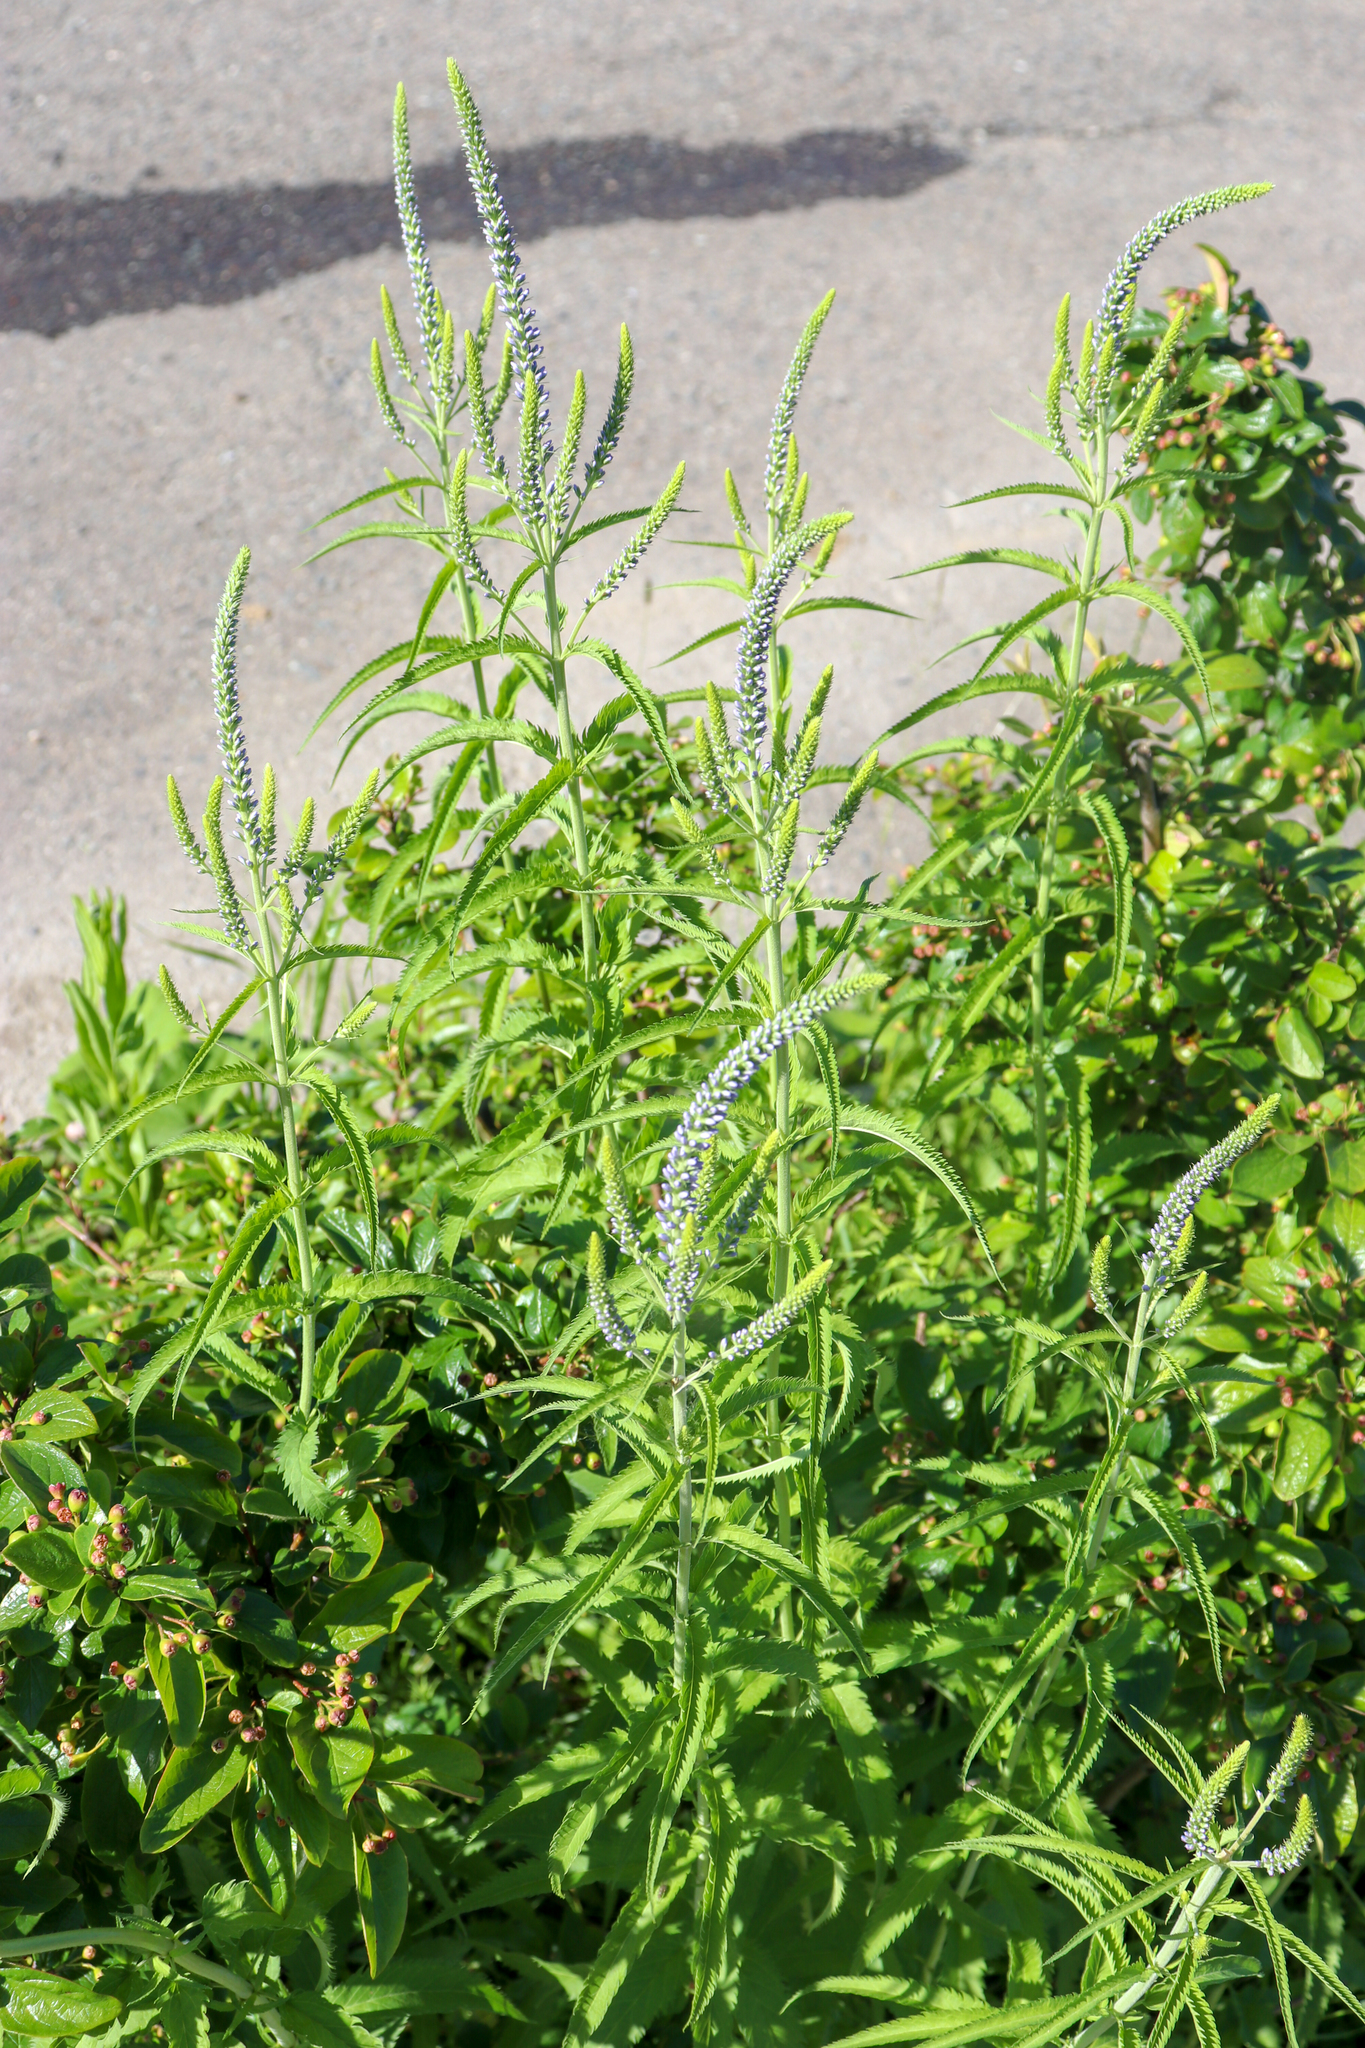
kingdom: Plantae
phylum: Tracheophyta
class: Magnoliopsida
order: Lamiales
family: Plantaginaceae
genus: Veronica
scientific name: Veronica longifolia
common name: Garden speedwell
